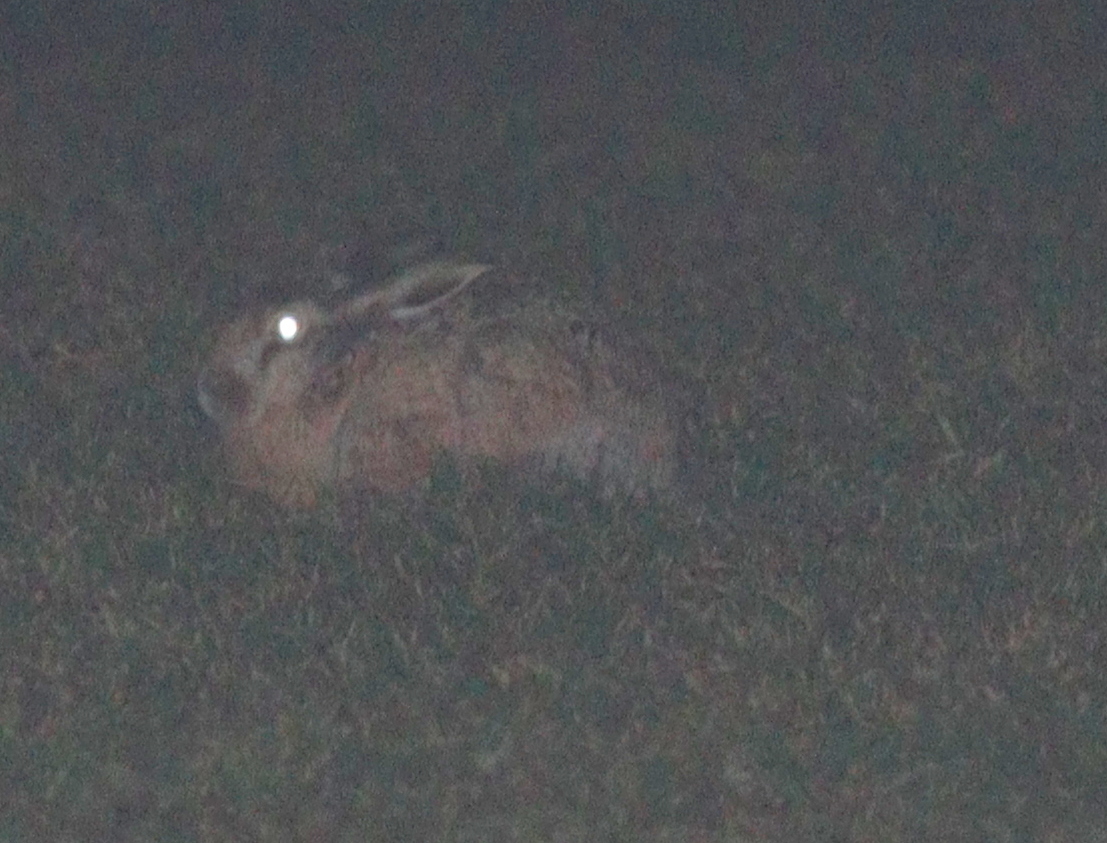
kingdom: Animalia
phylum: Chordata
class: Mammalia
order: Lagomorpha
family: Leporidae
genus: Lepus
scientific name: Lepus europaeus
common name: European hare
